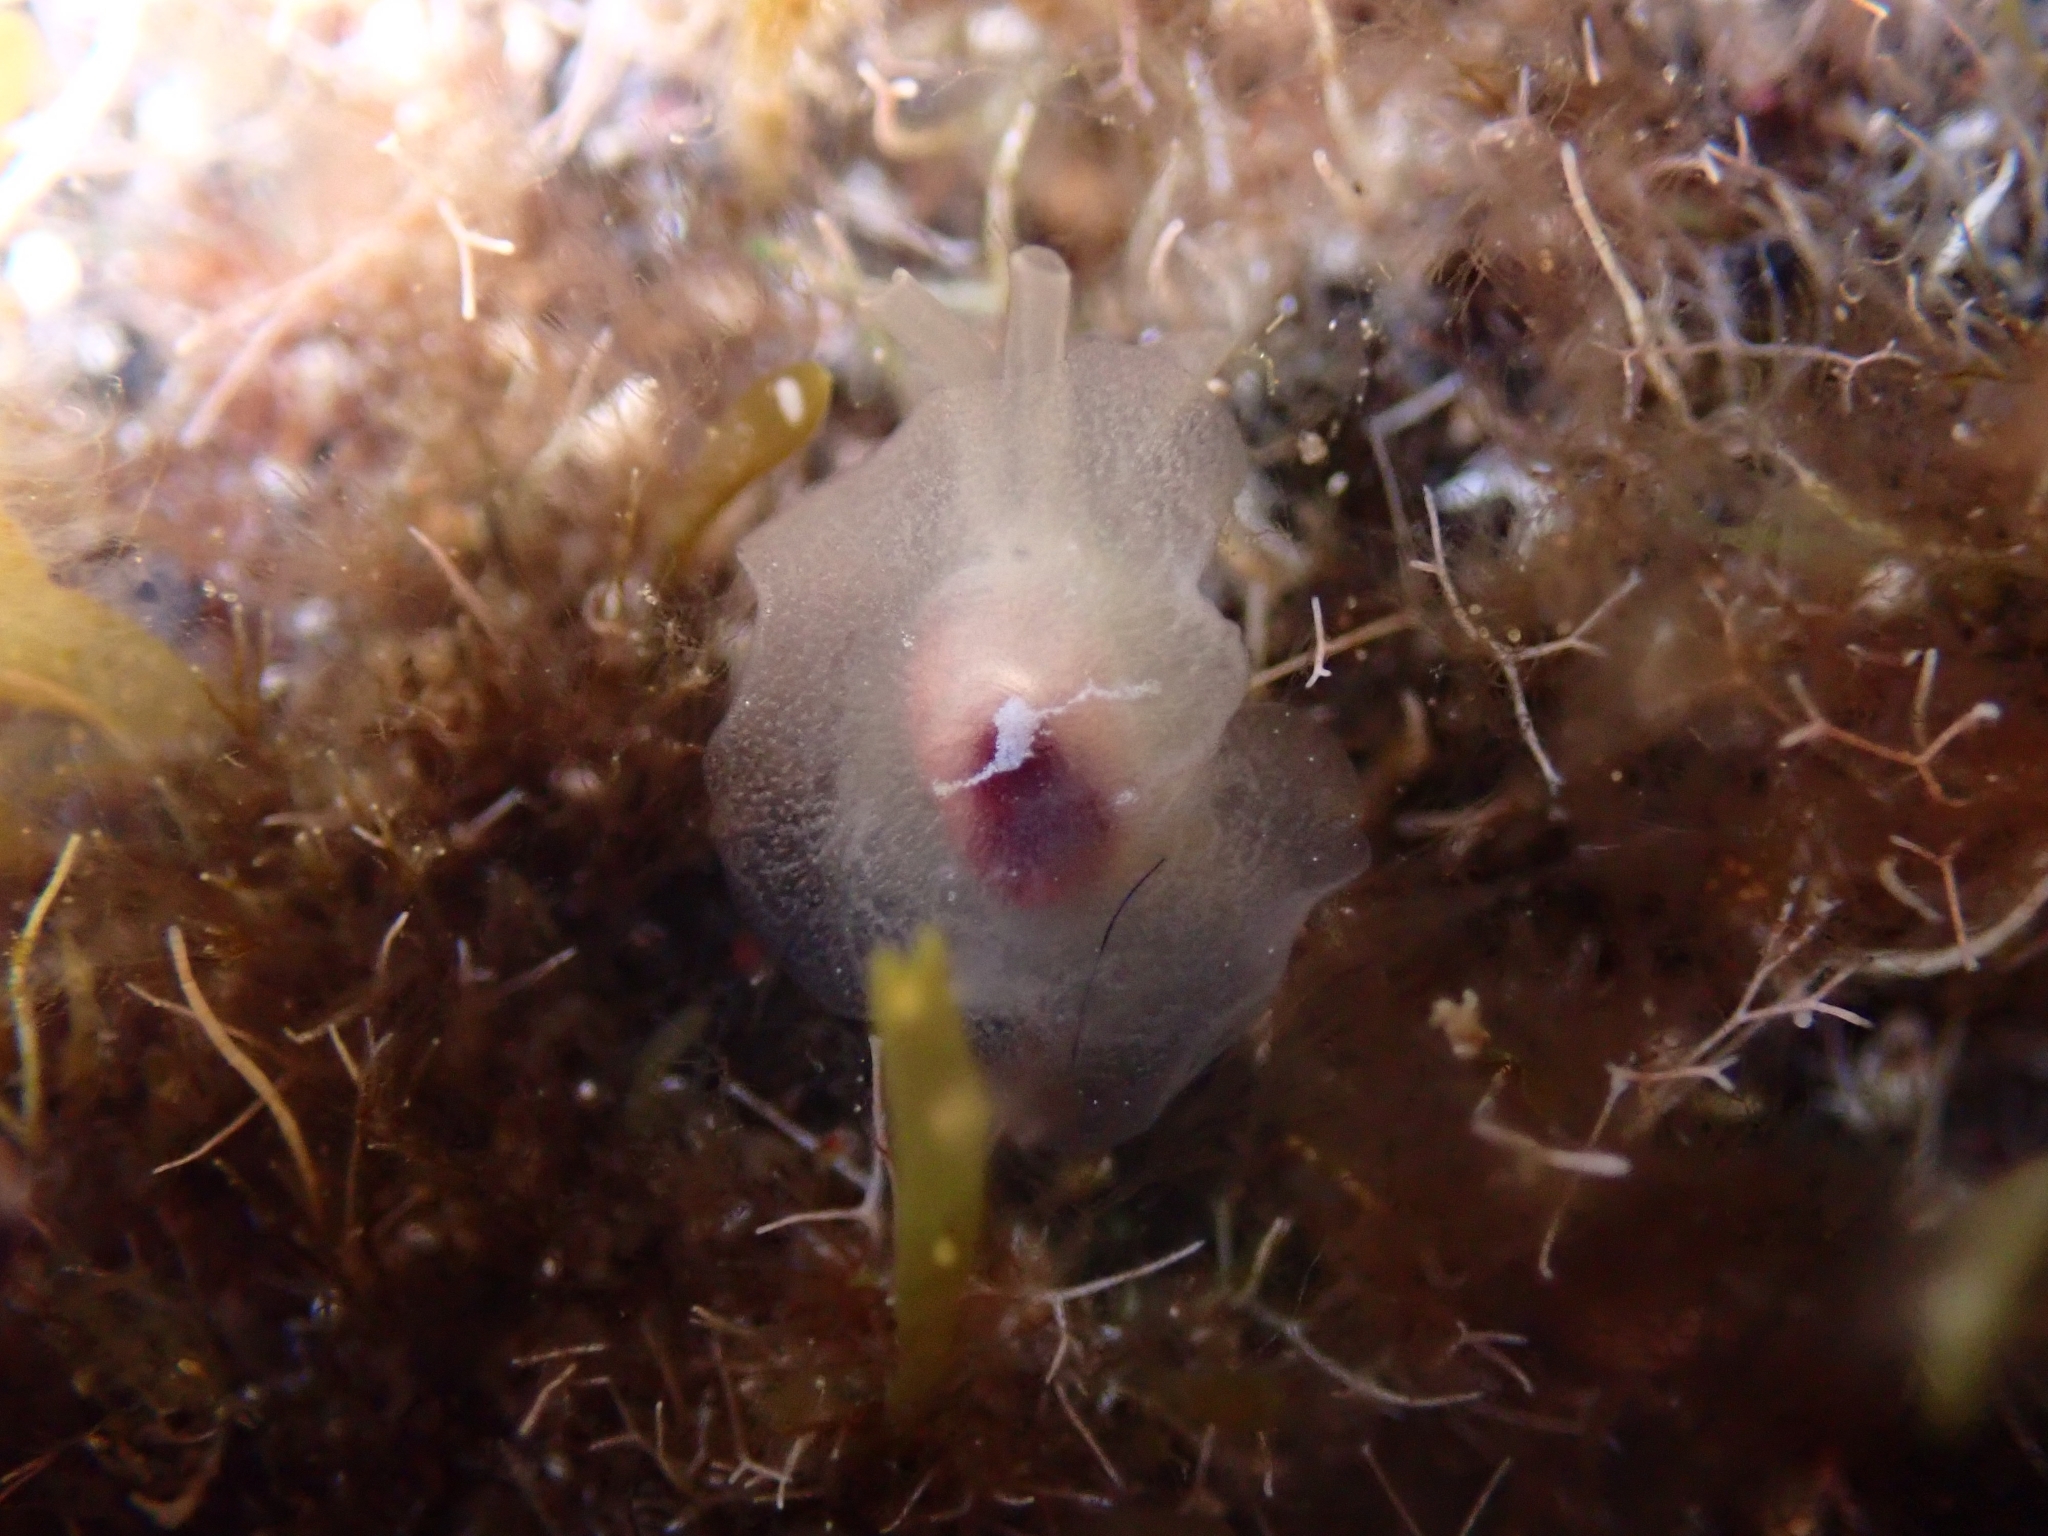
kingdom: Animalia
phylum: Mollusca
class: Gastropoda
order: Pleurobranchida
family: Pleurobranchidae
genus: Pleurehdera
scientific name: Pleurehdera
